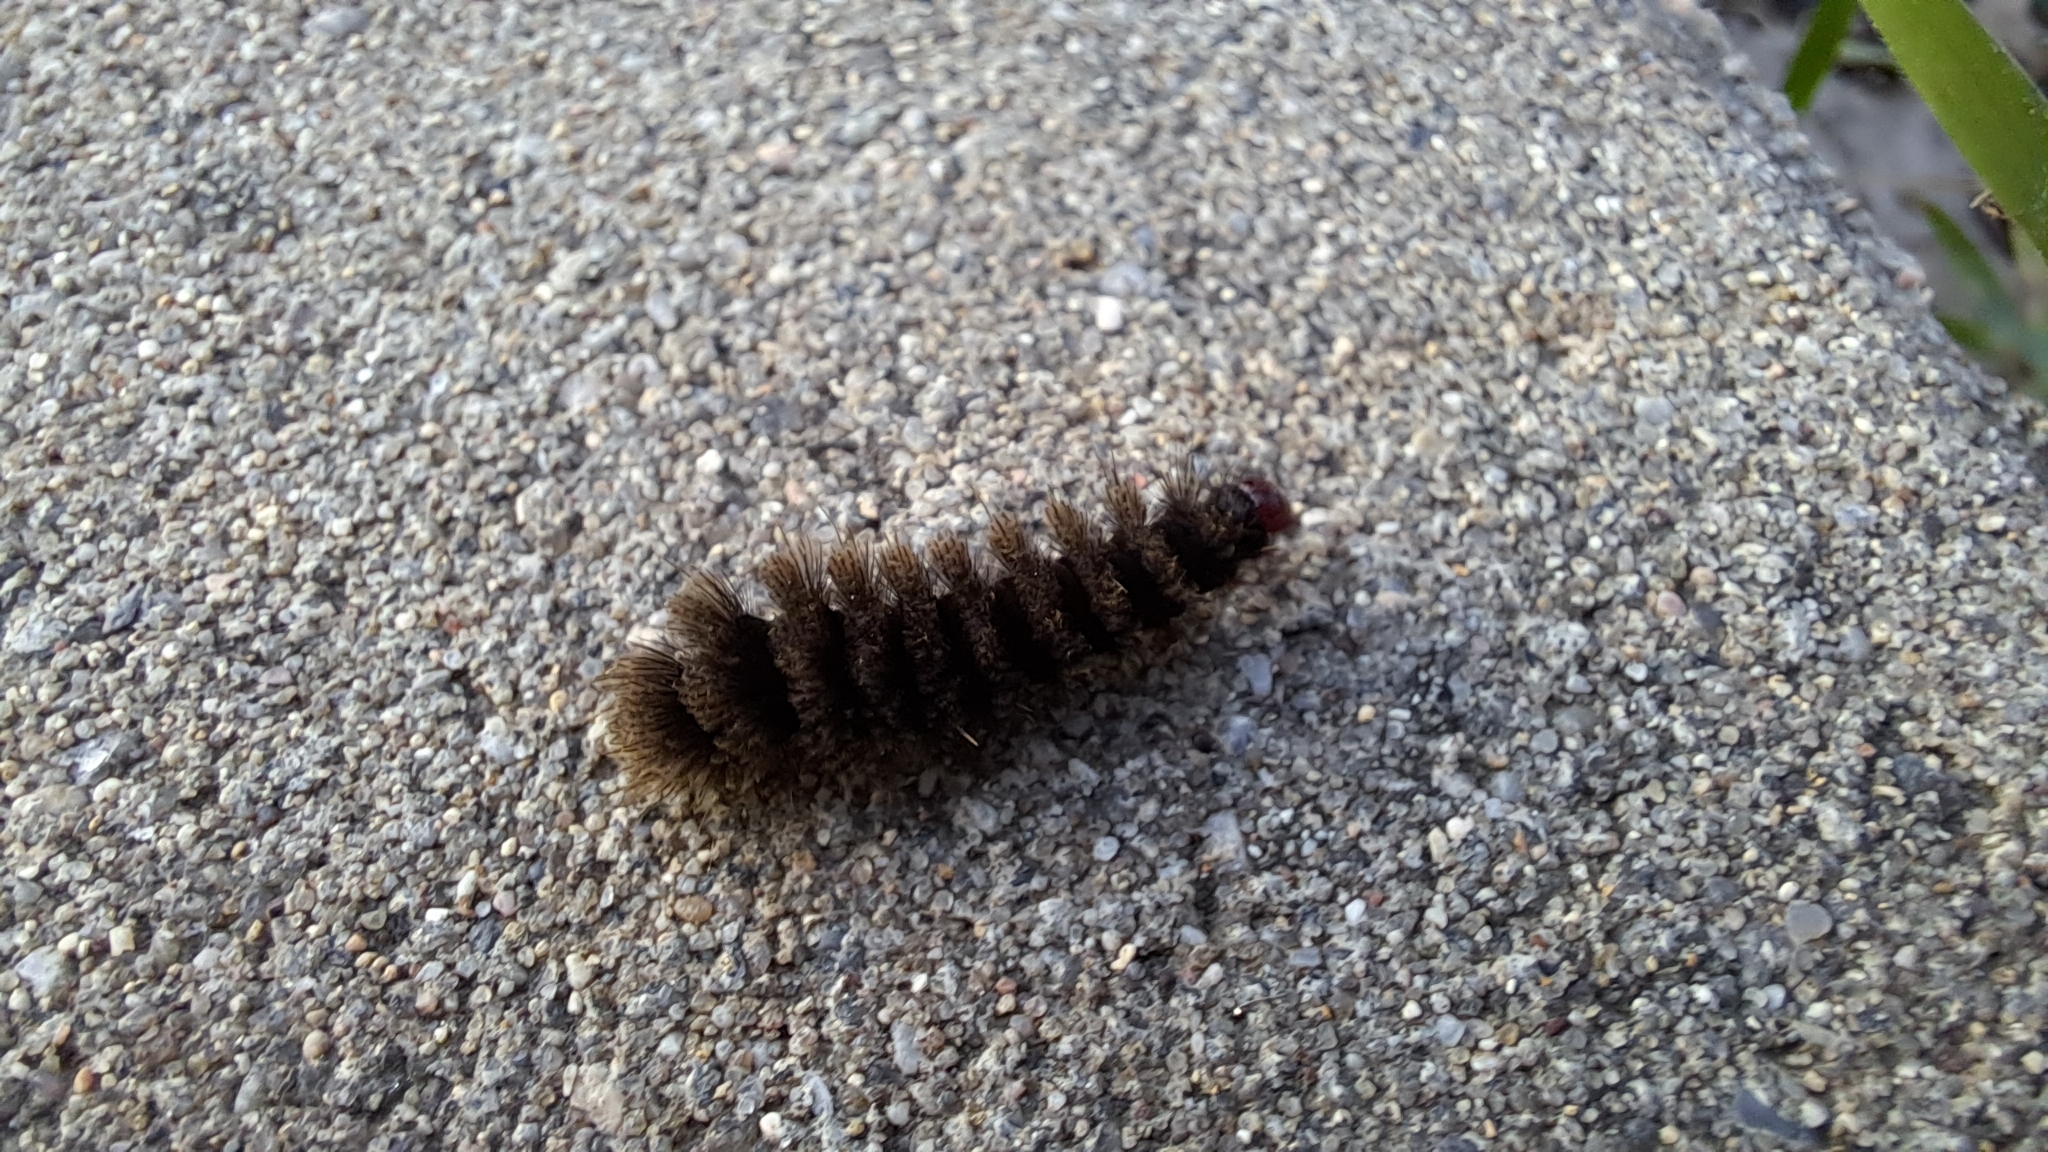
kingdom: Animalia
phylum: Arthropoda
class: Insecta
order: Lepidoptera
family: Erebidae
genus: Amata
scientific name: Amata phegea
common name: Nine-spotted
